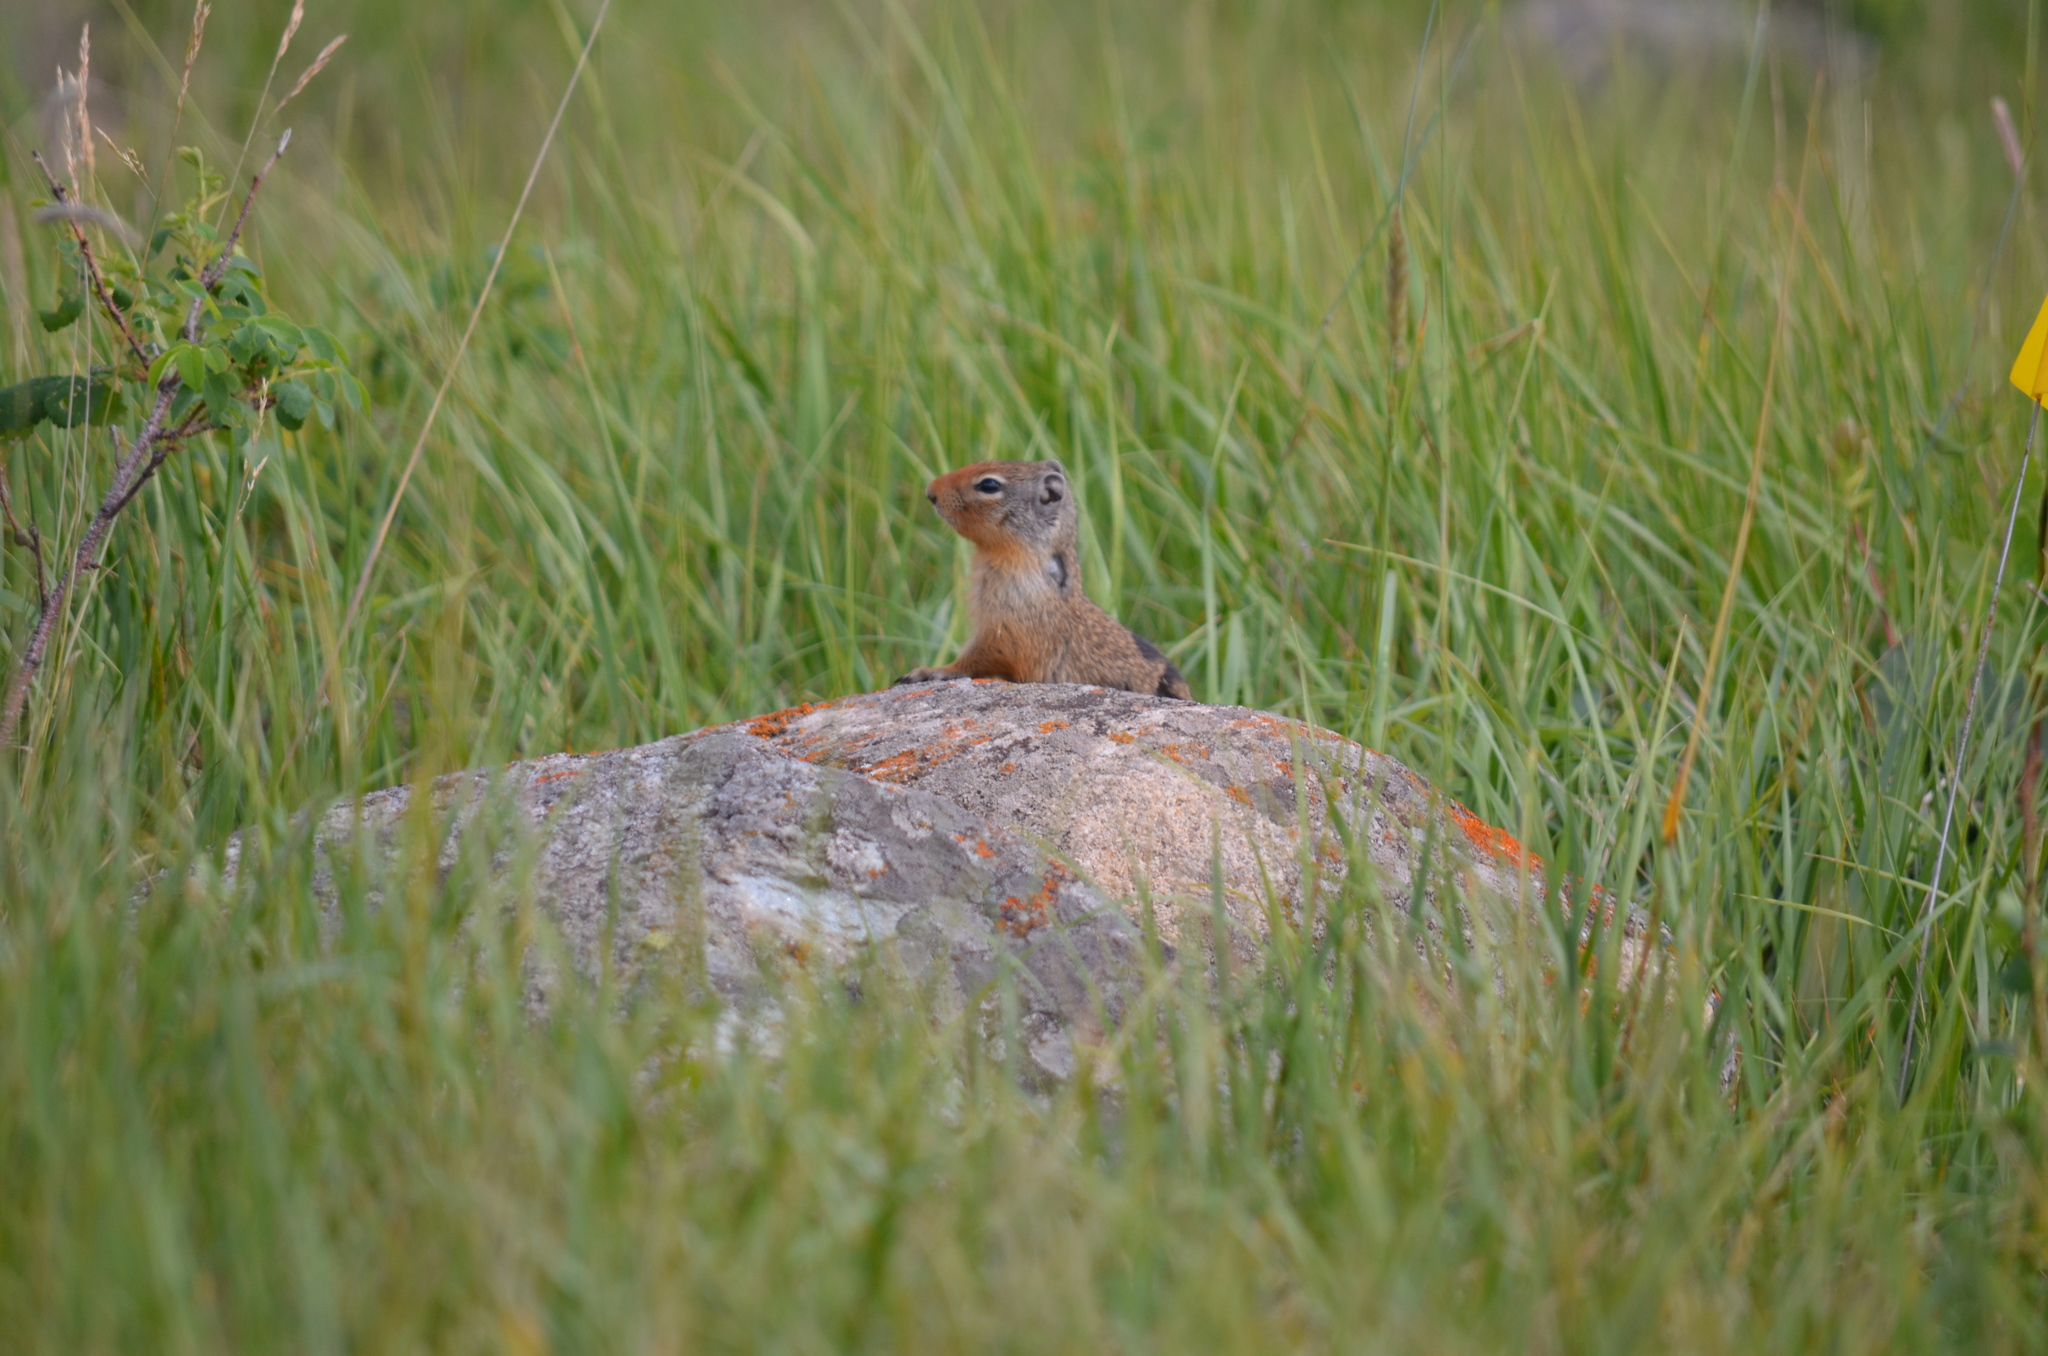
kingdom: Animalia
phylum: Chordata
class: Mammalia
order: Rodentia
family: Sciuridae
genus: Urocitellus
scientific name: Urocitellus columbianus
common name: Columbian ground squirrel
